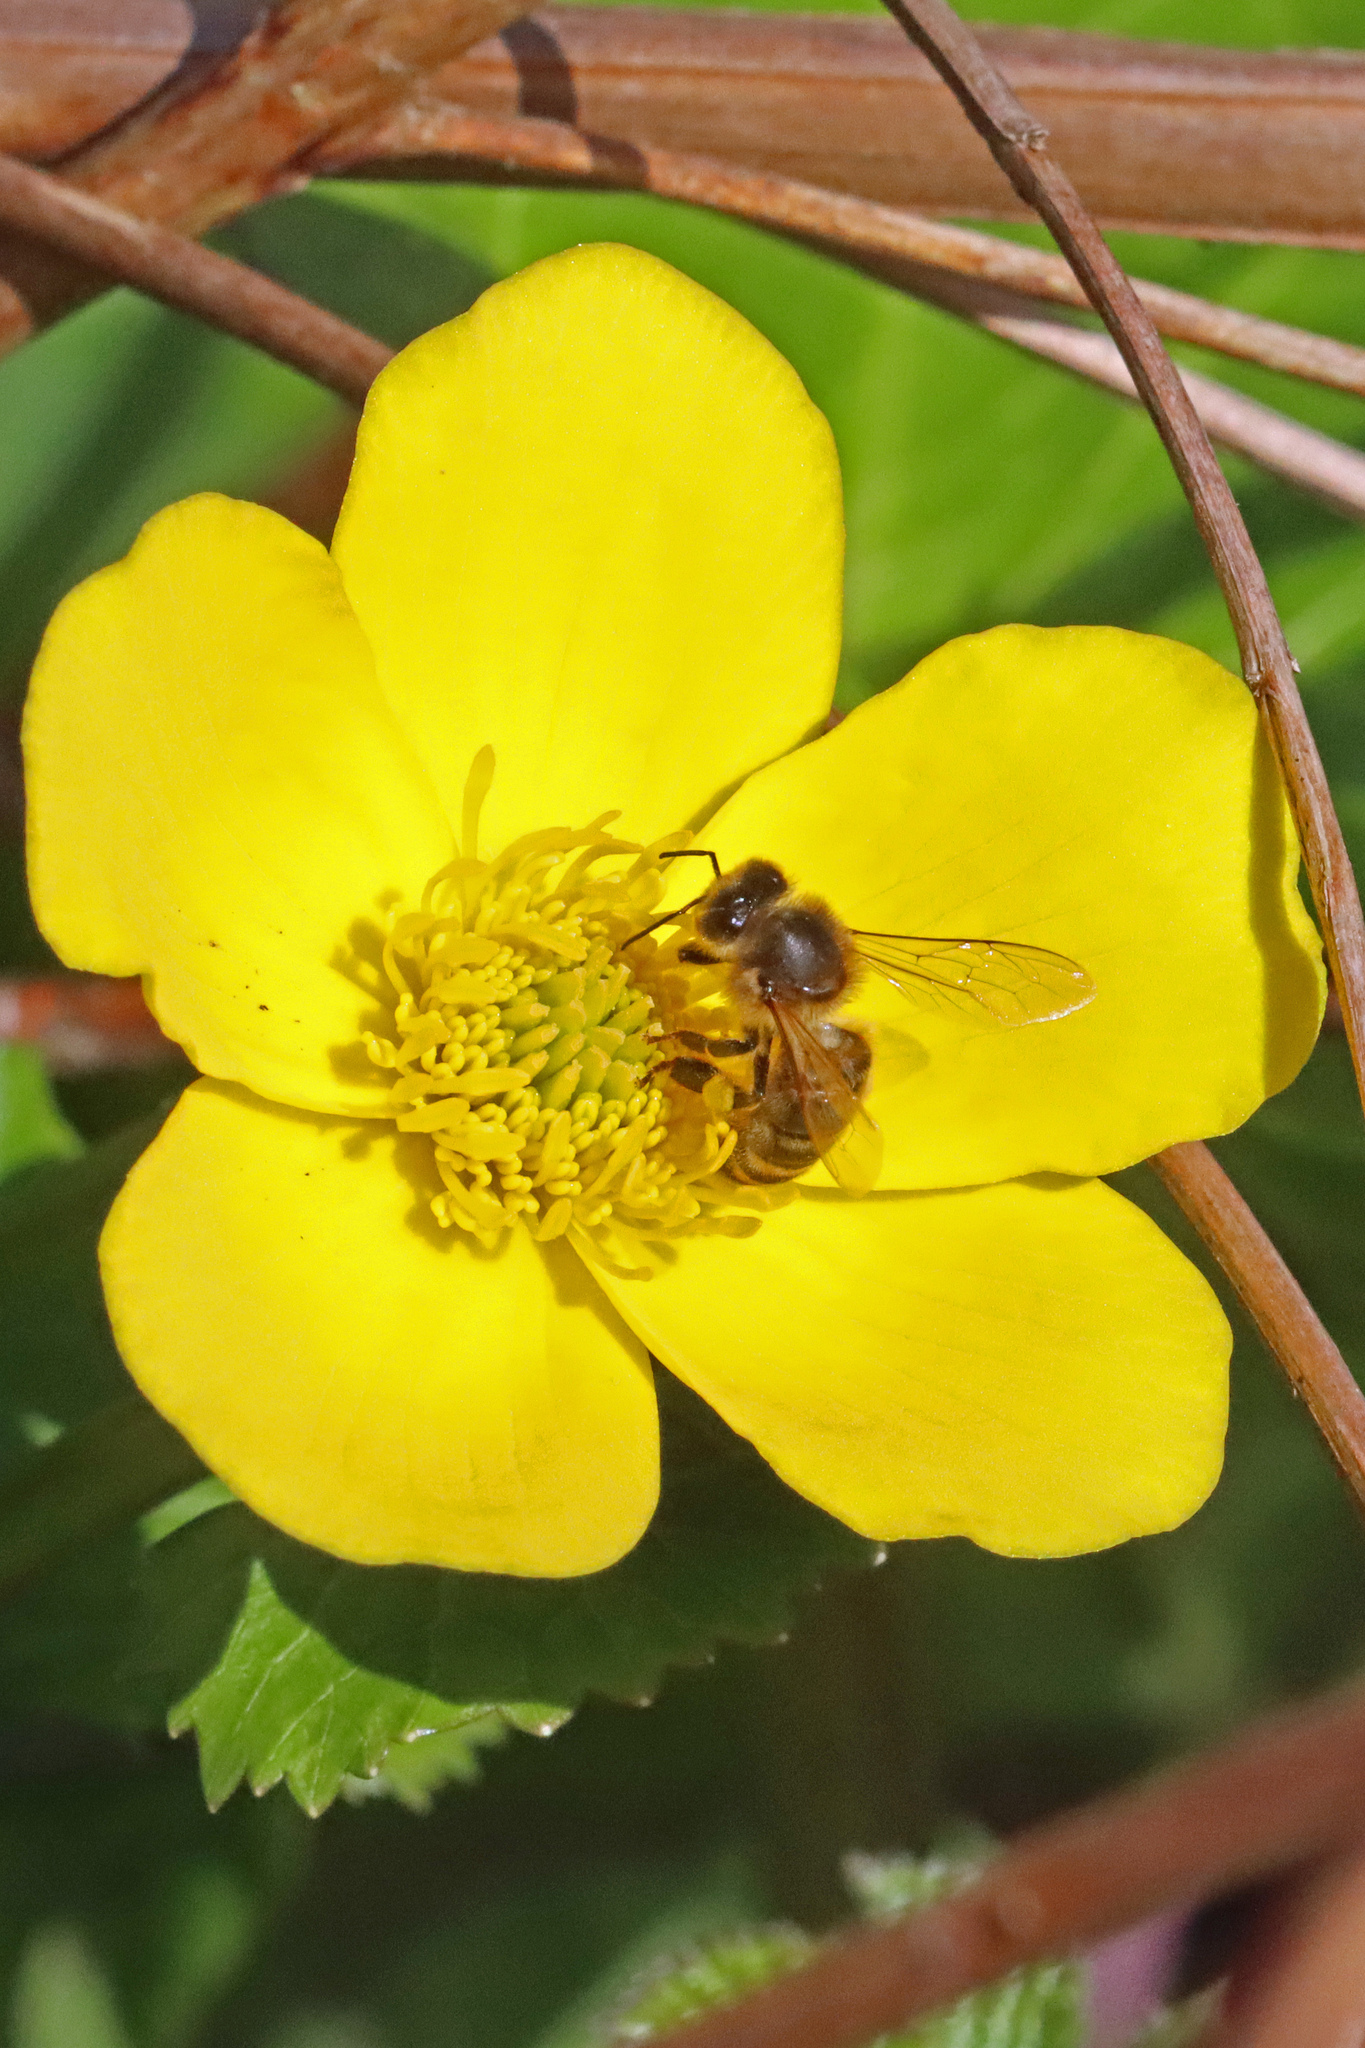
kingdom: Animalia
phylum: Arthropoda
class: Insecta
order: Hymenoptera
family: Apidae
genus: Apis
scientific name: Apis mellifera
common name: Honey bee
